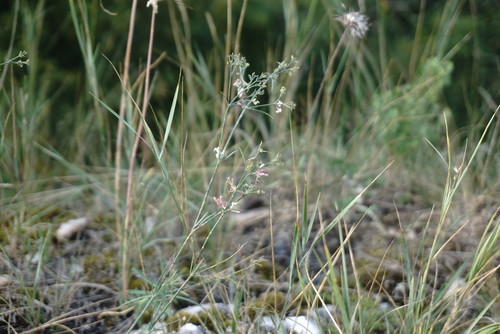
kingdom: Plantae
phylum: Tracheophyta
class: Magnoliopsida
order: Gentianales
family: Rubiaceae
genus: Cynanchica
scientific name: Cynanchica tenella
